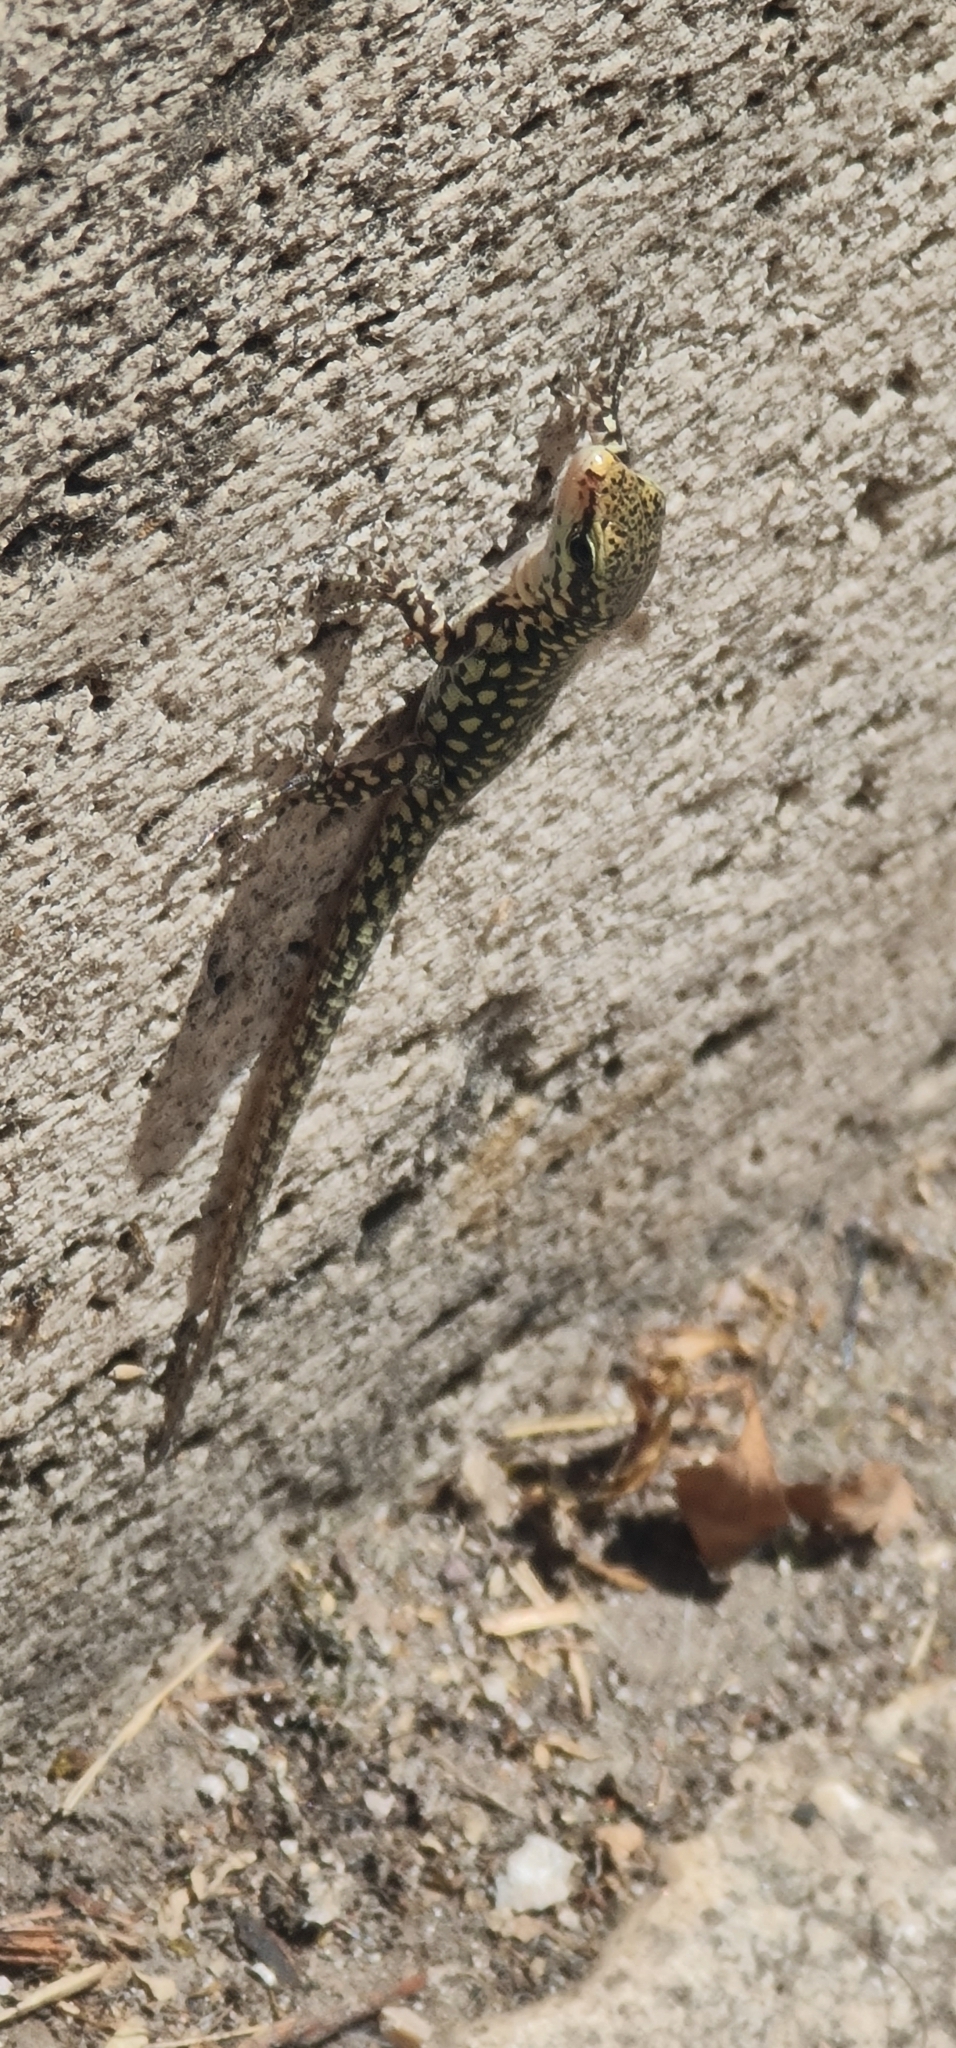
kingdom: Animalia
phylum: Chordata
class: Squamata
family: Lacertidae
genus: Podarcis
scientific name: Podarcis muralis
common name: Common wall lizard
